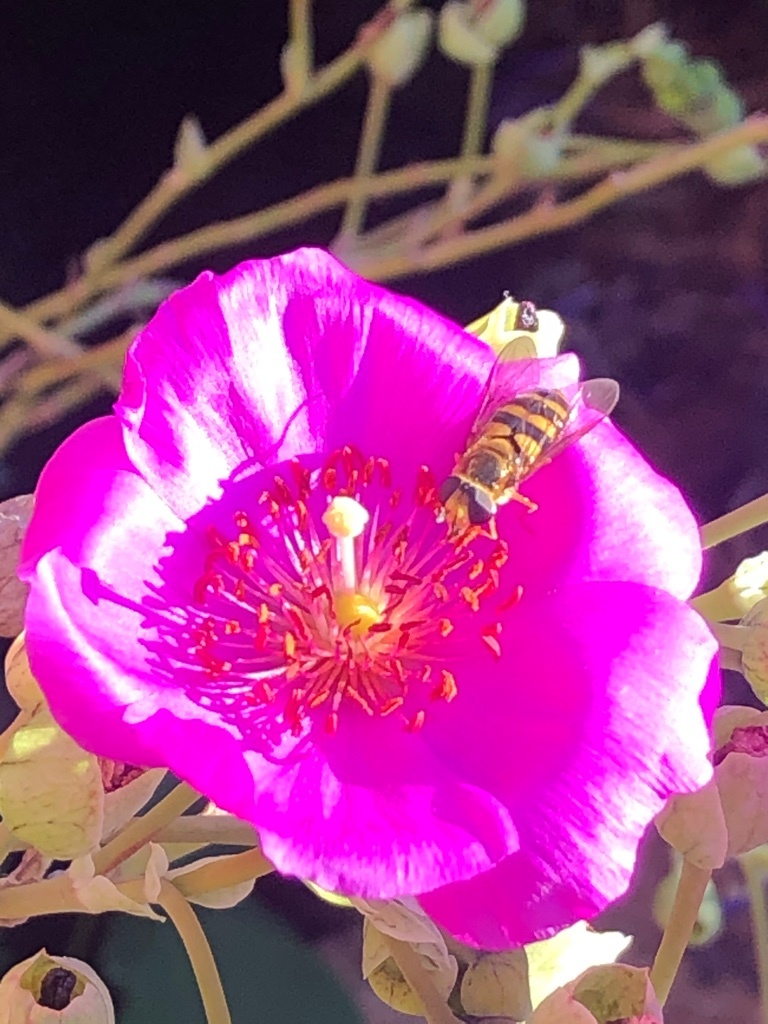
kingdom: Animalia
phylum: Arthropoda
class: Insecta
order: Diptera
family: Syrphidae
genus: Eupeodes
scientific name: Eupeodes fumipennis
